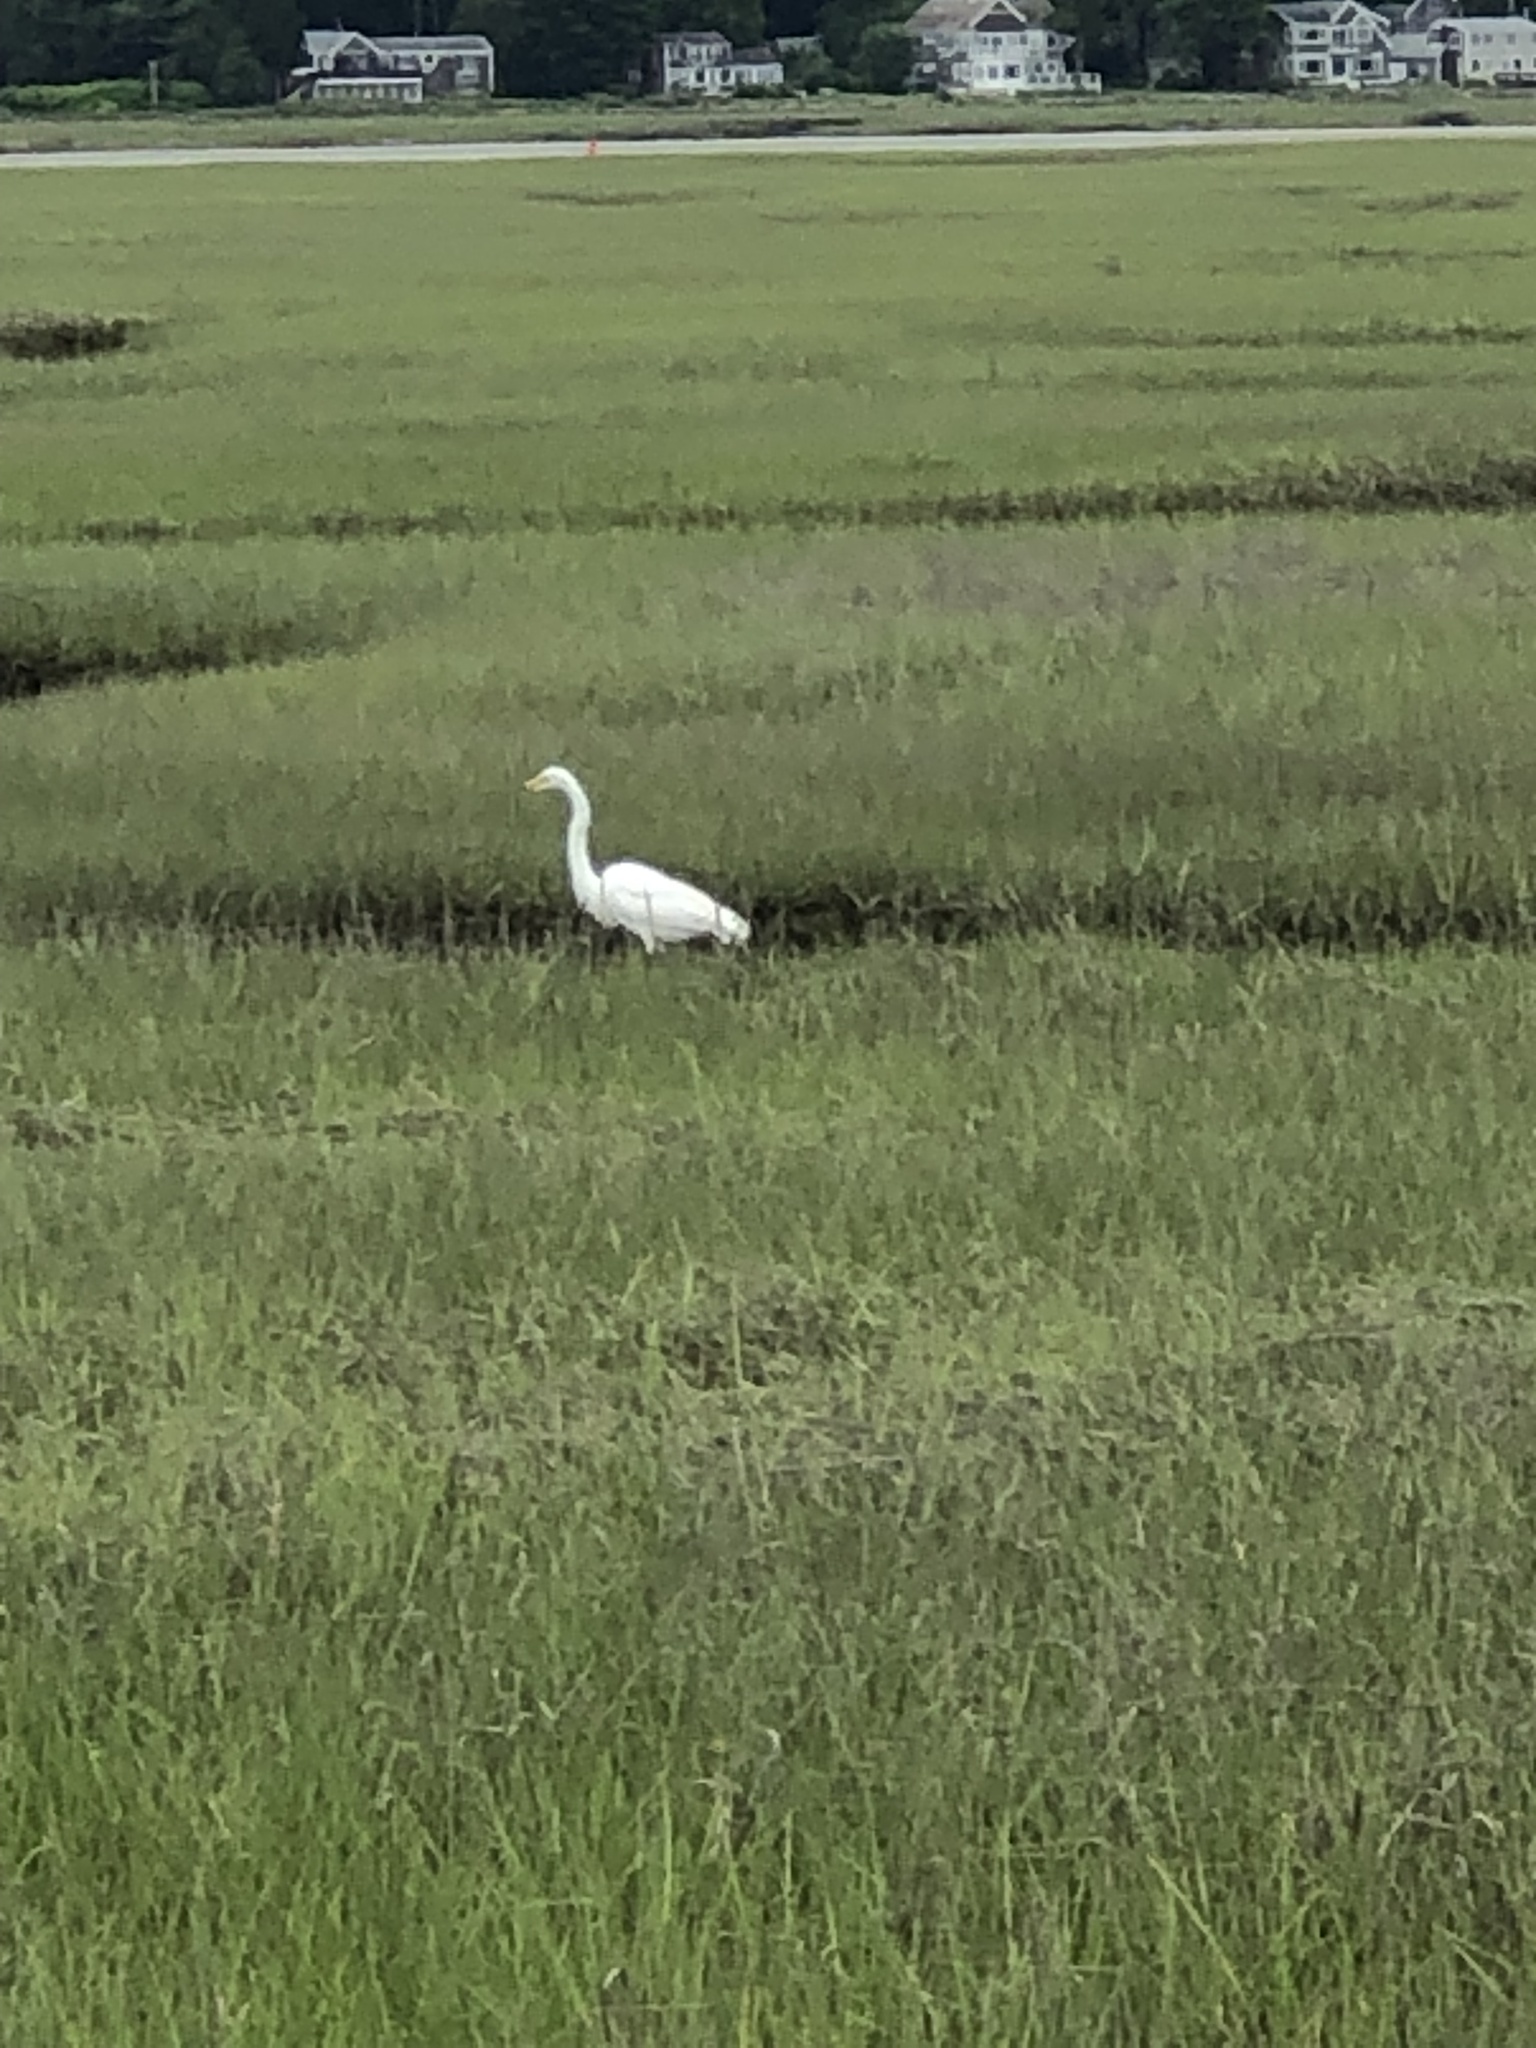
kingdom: Animalia
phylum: Chordata
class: Aves
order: Pelecaniformes
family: Ardeidae
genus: Ardea
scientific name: Ardea alba
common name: Great egret
